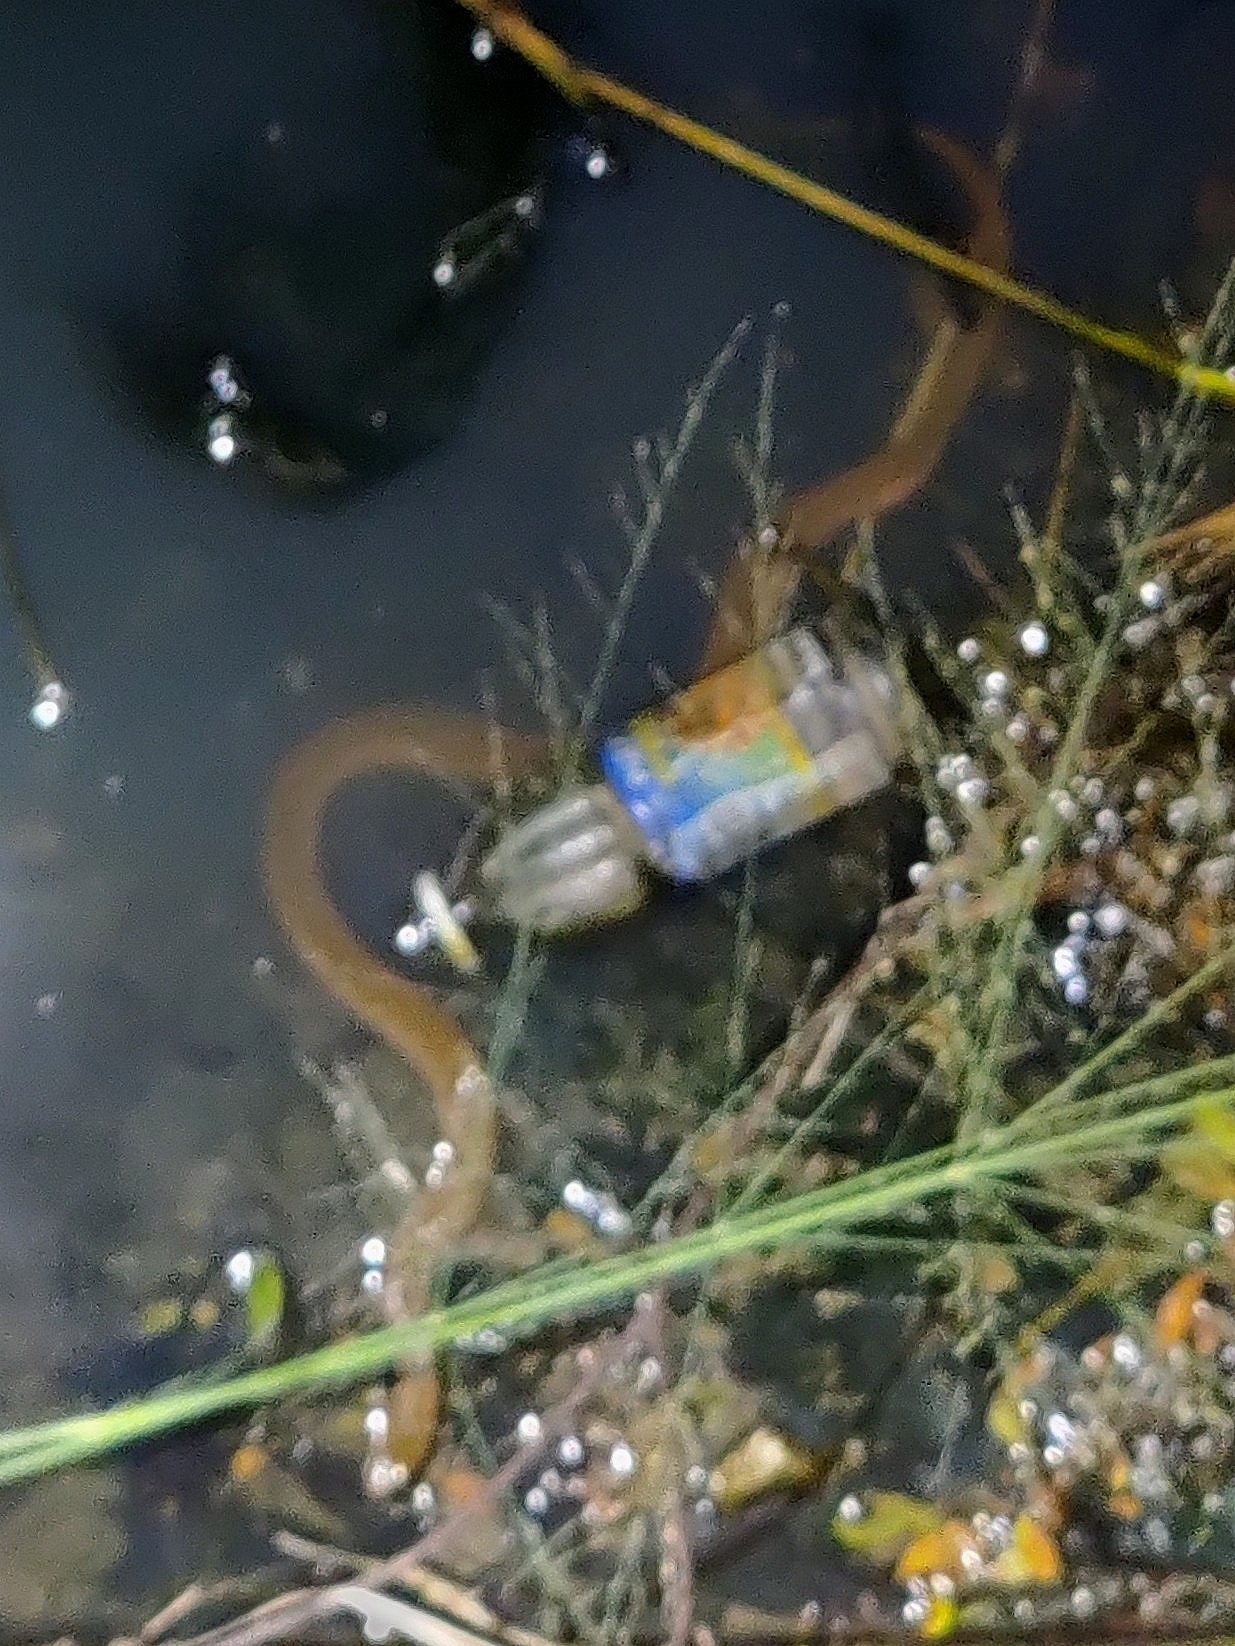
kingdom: Animalia
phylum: Chordata
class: Squamata
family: Colubridae
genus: Fowlea
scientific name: Fowlea piscator
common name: Asiatic water snake
